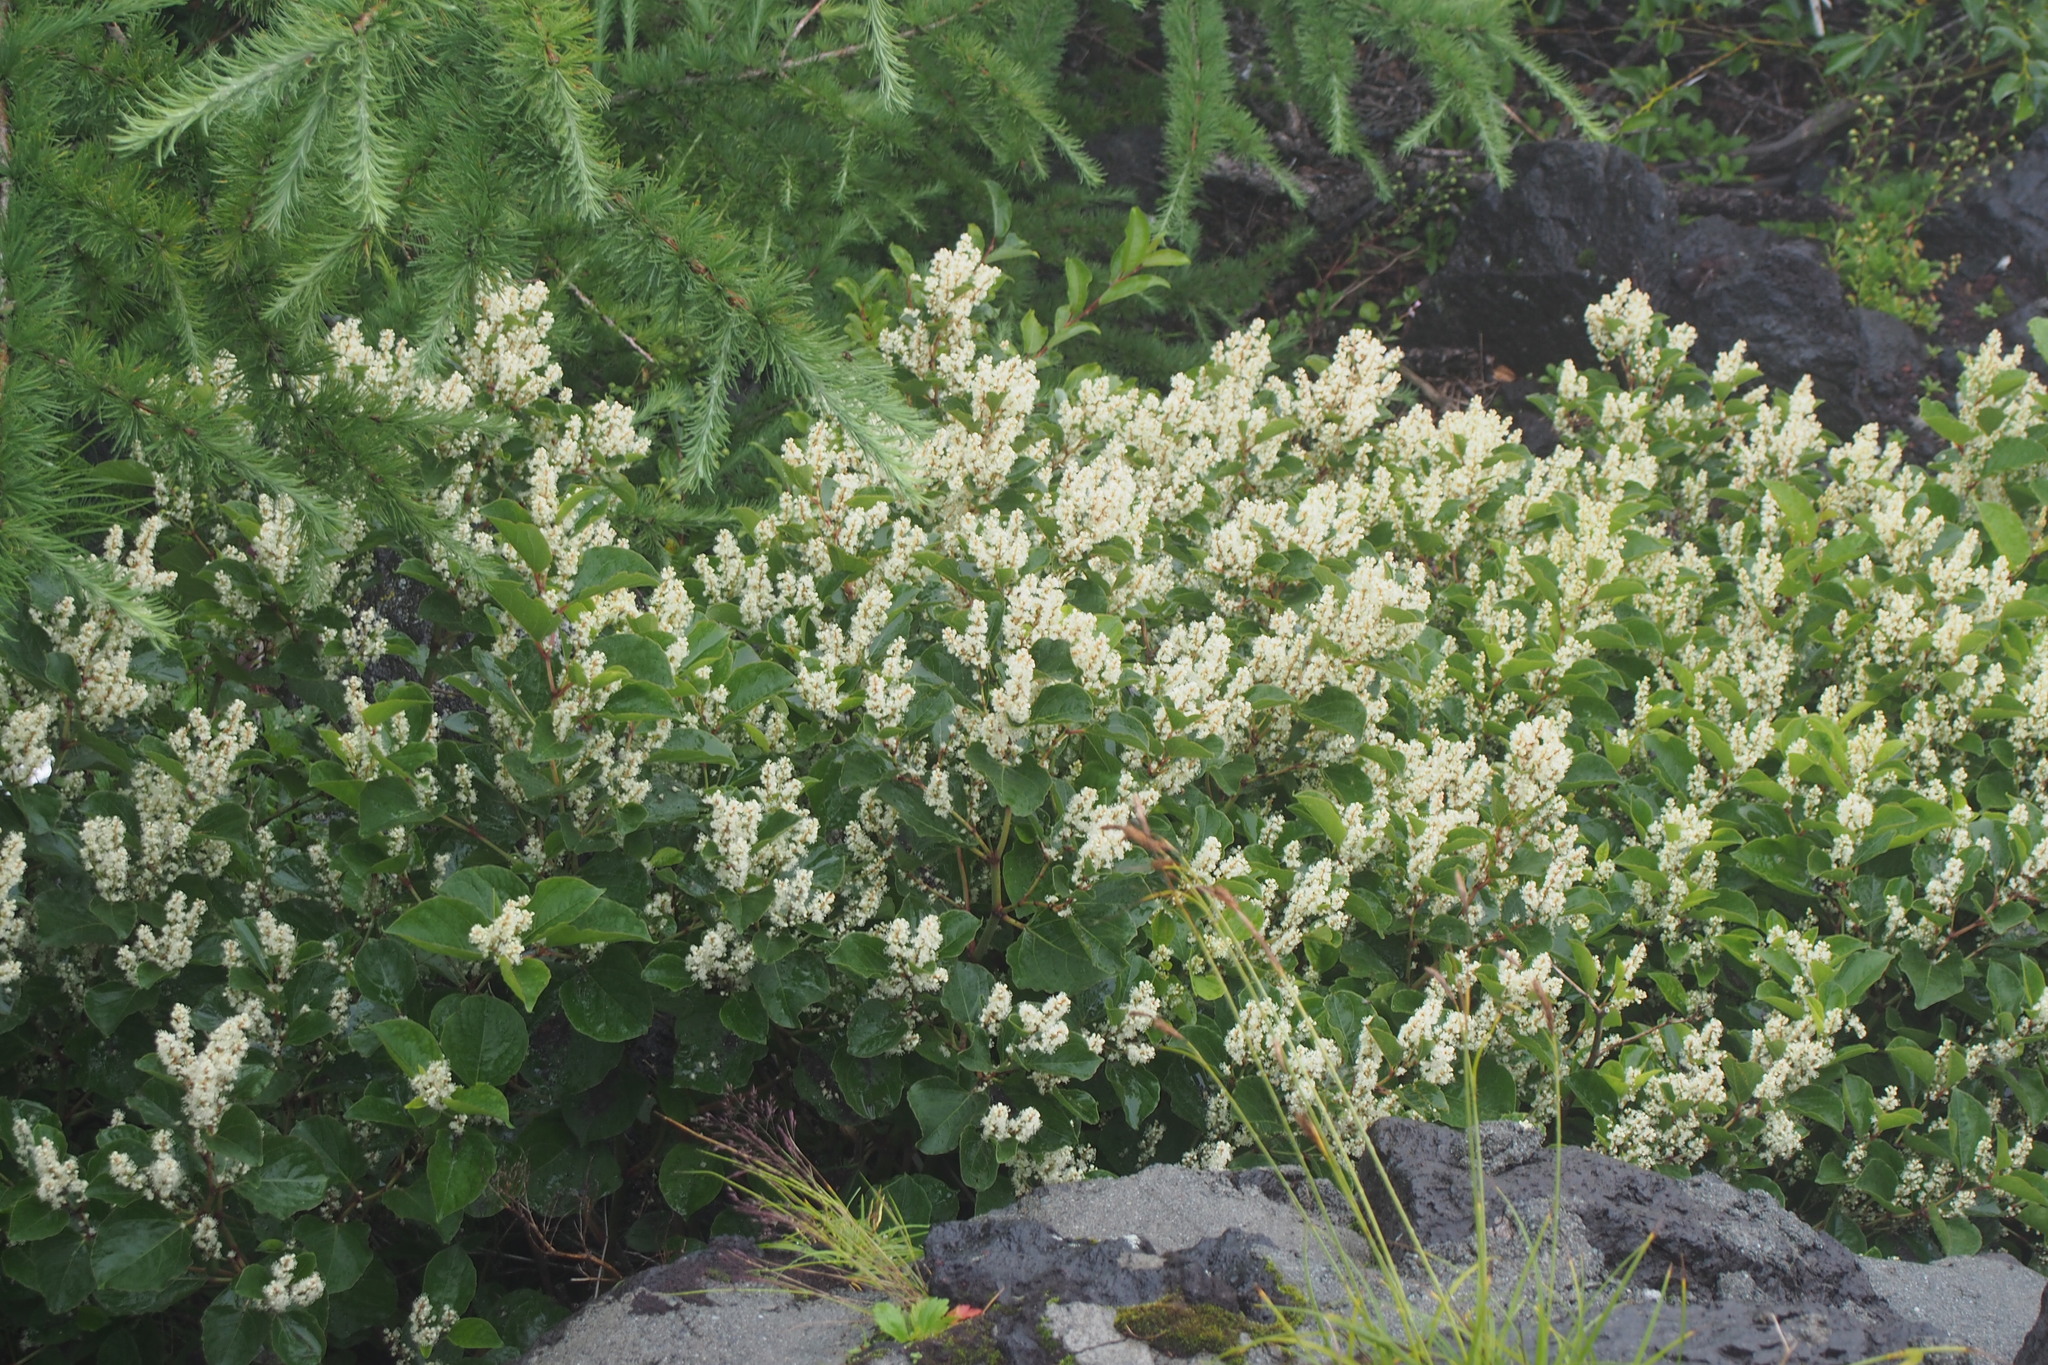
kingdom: Plantae
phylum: Tracheophyta
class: Magnoliopsida
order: Caryophyllales
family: Polygonaceae
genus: Reynoutria
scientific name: Reynoutria japonica
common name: Japanese knotweed
